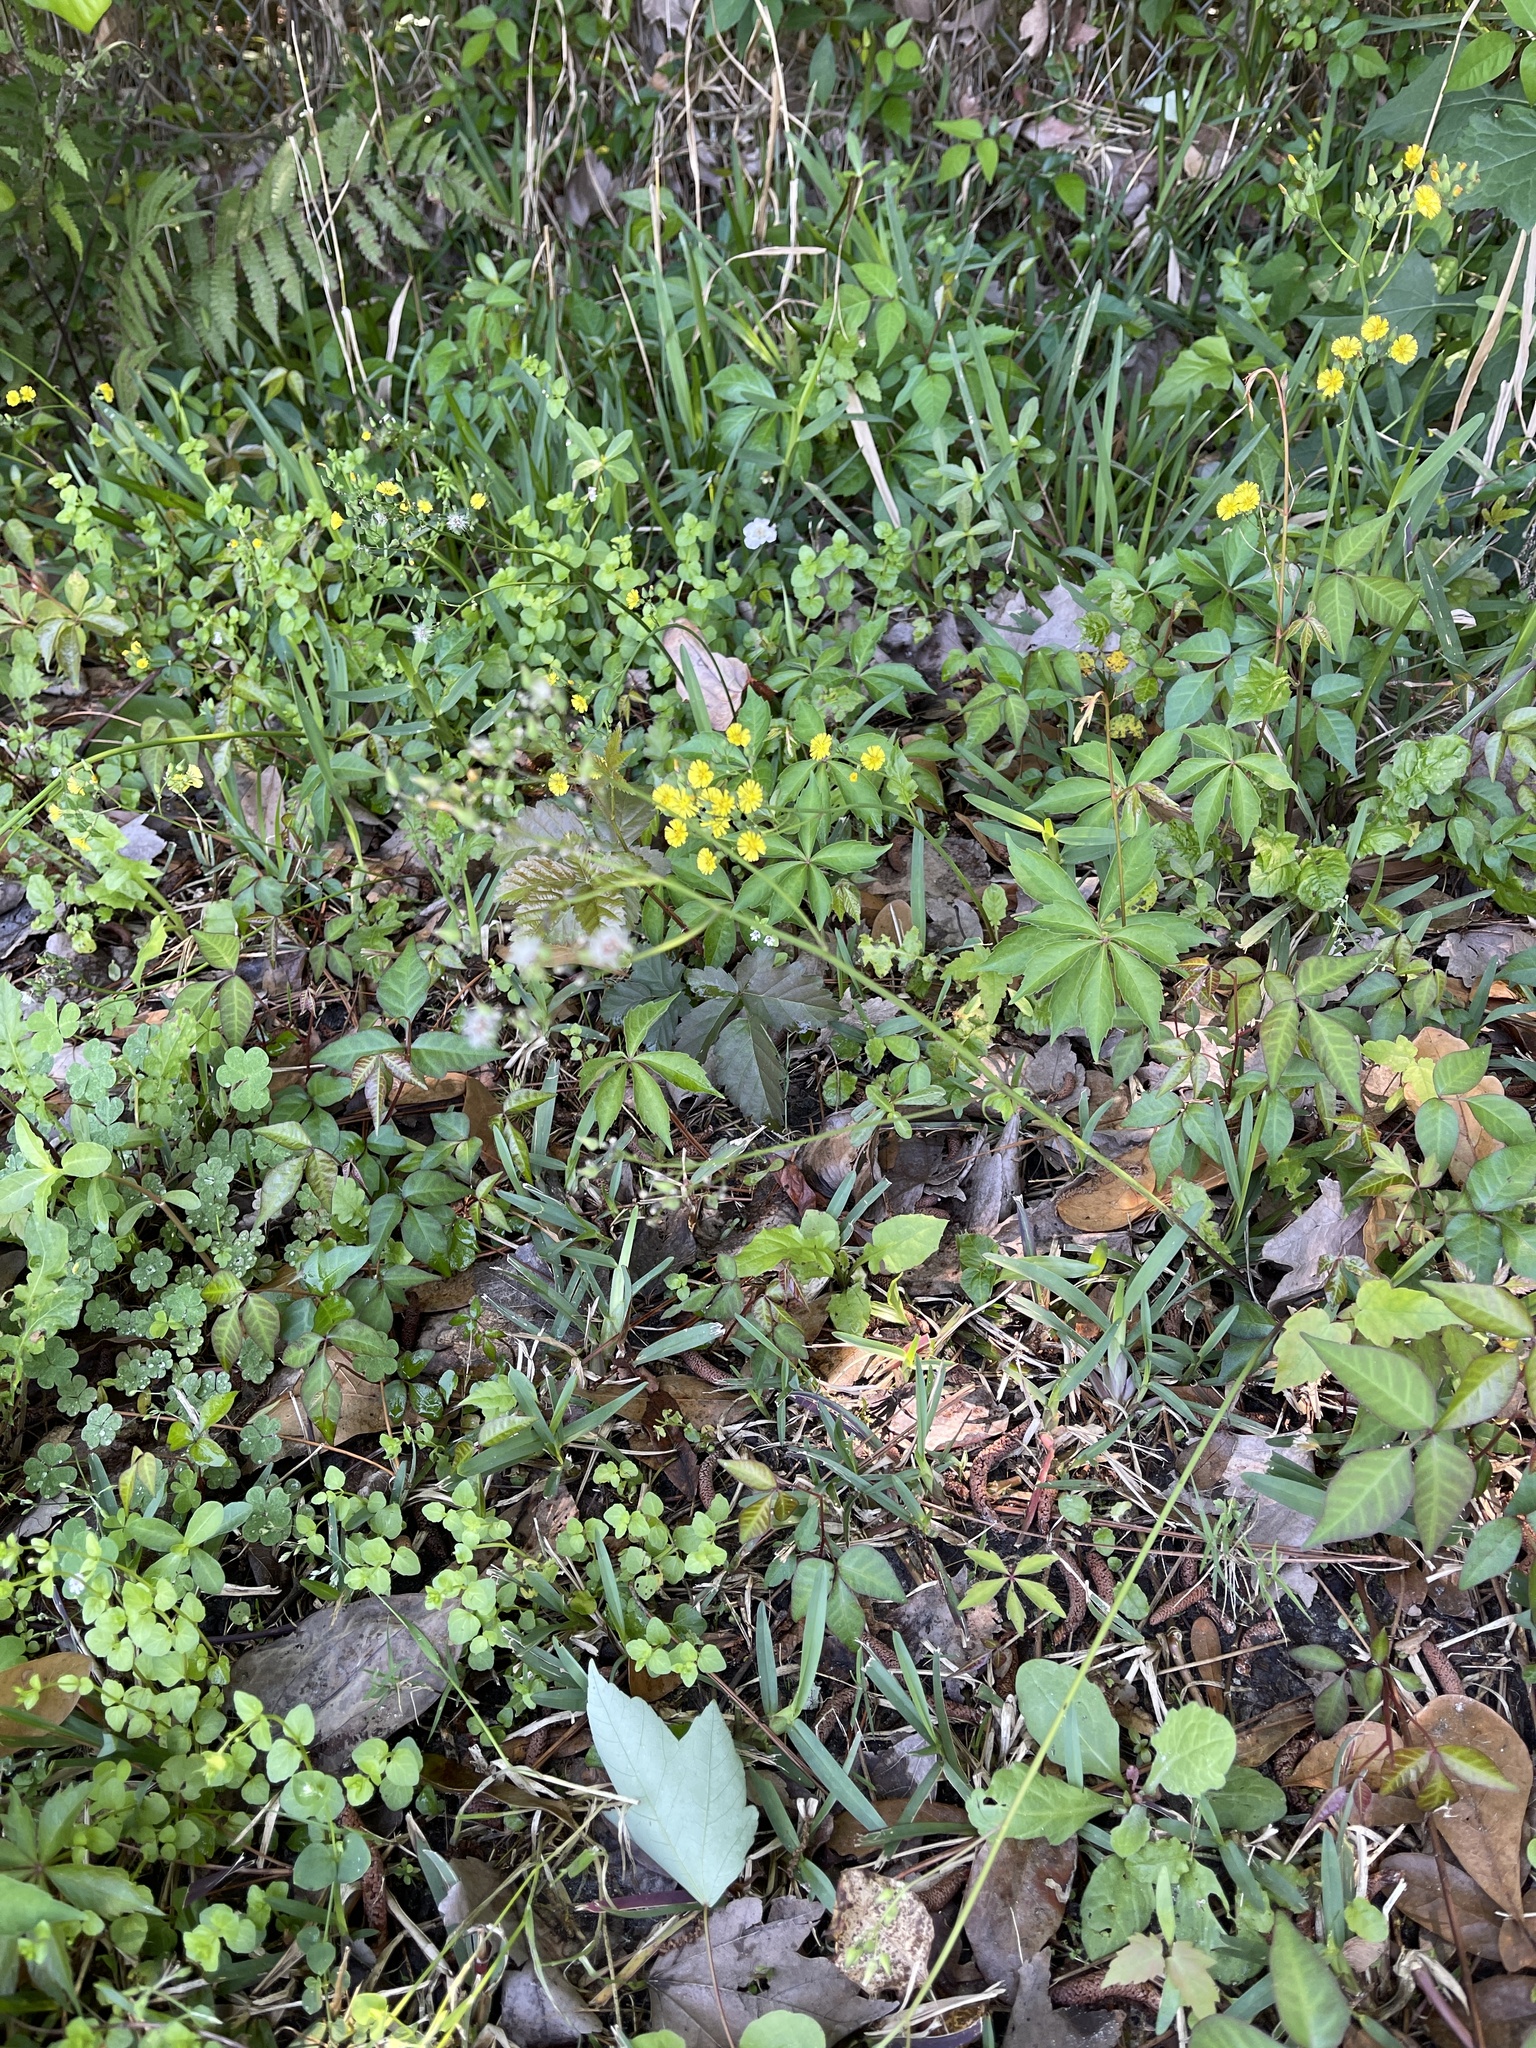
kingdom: Plantae
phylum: Tracheophyta
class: Magnoliopsida
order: Asterales
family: Asteraceae
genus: Youngia
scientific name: Youngia japonica
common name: Oriental false hawksbeard
